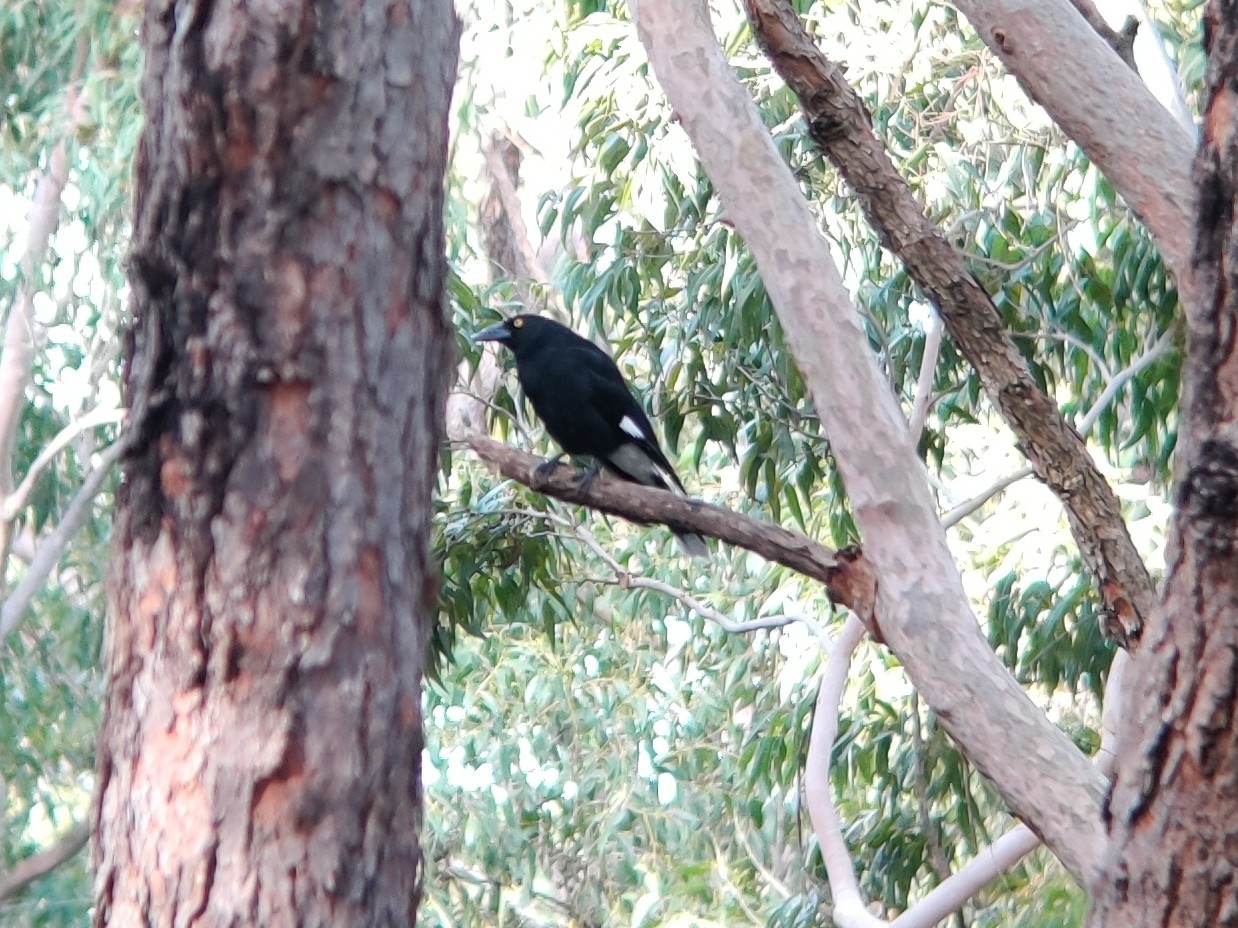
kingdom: Animalia
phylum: Chordata
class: Aves
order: Passeriformes
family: Cracticidae
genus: Strepera
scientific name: Strepera graculina
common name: Pied currawong
